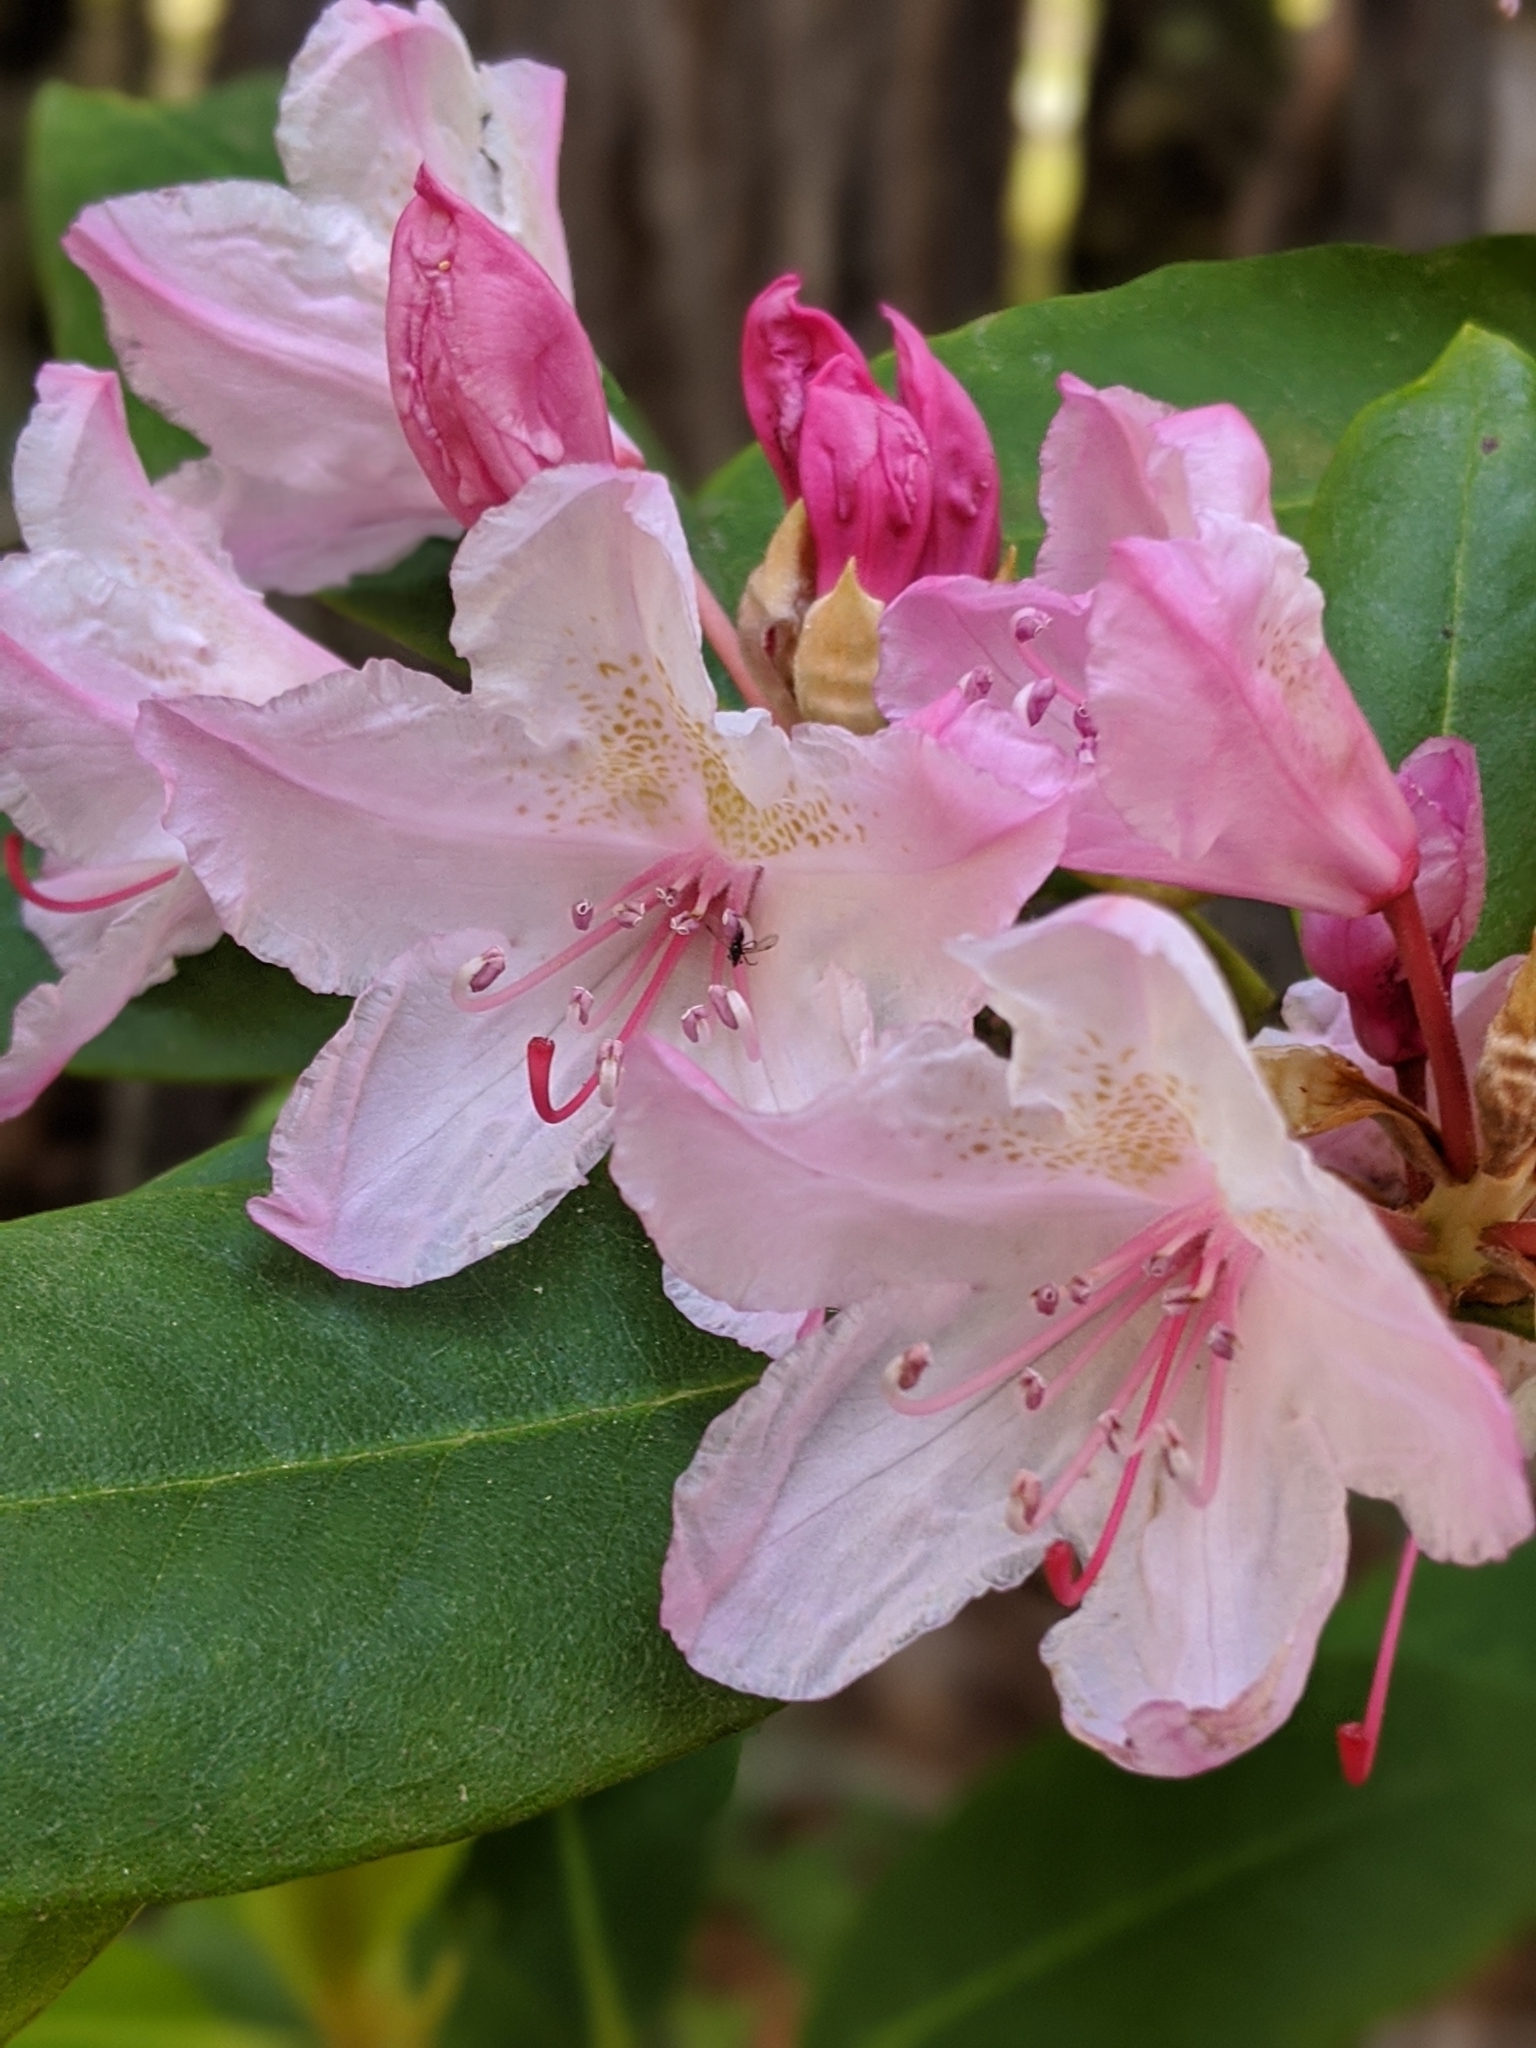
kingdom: Plantae
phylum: Tracheophyta
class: Magnoliopsida
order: Ericales
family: Ericaceae
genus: Rhododendron
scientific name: Rhododendron macrophyllum
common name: California rose bay
